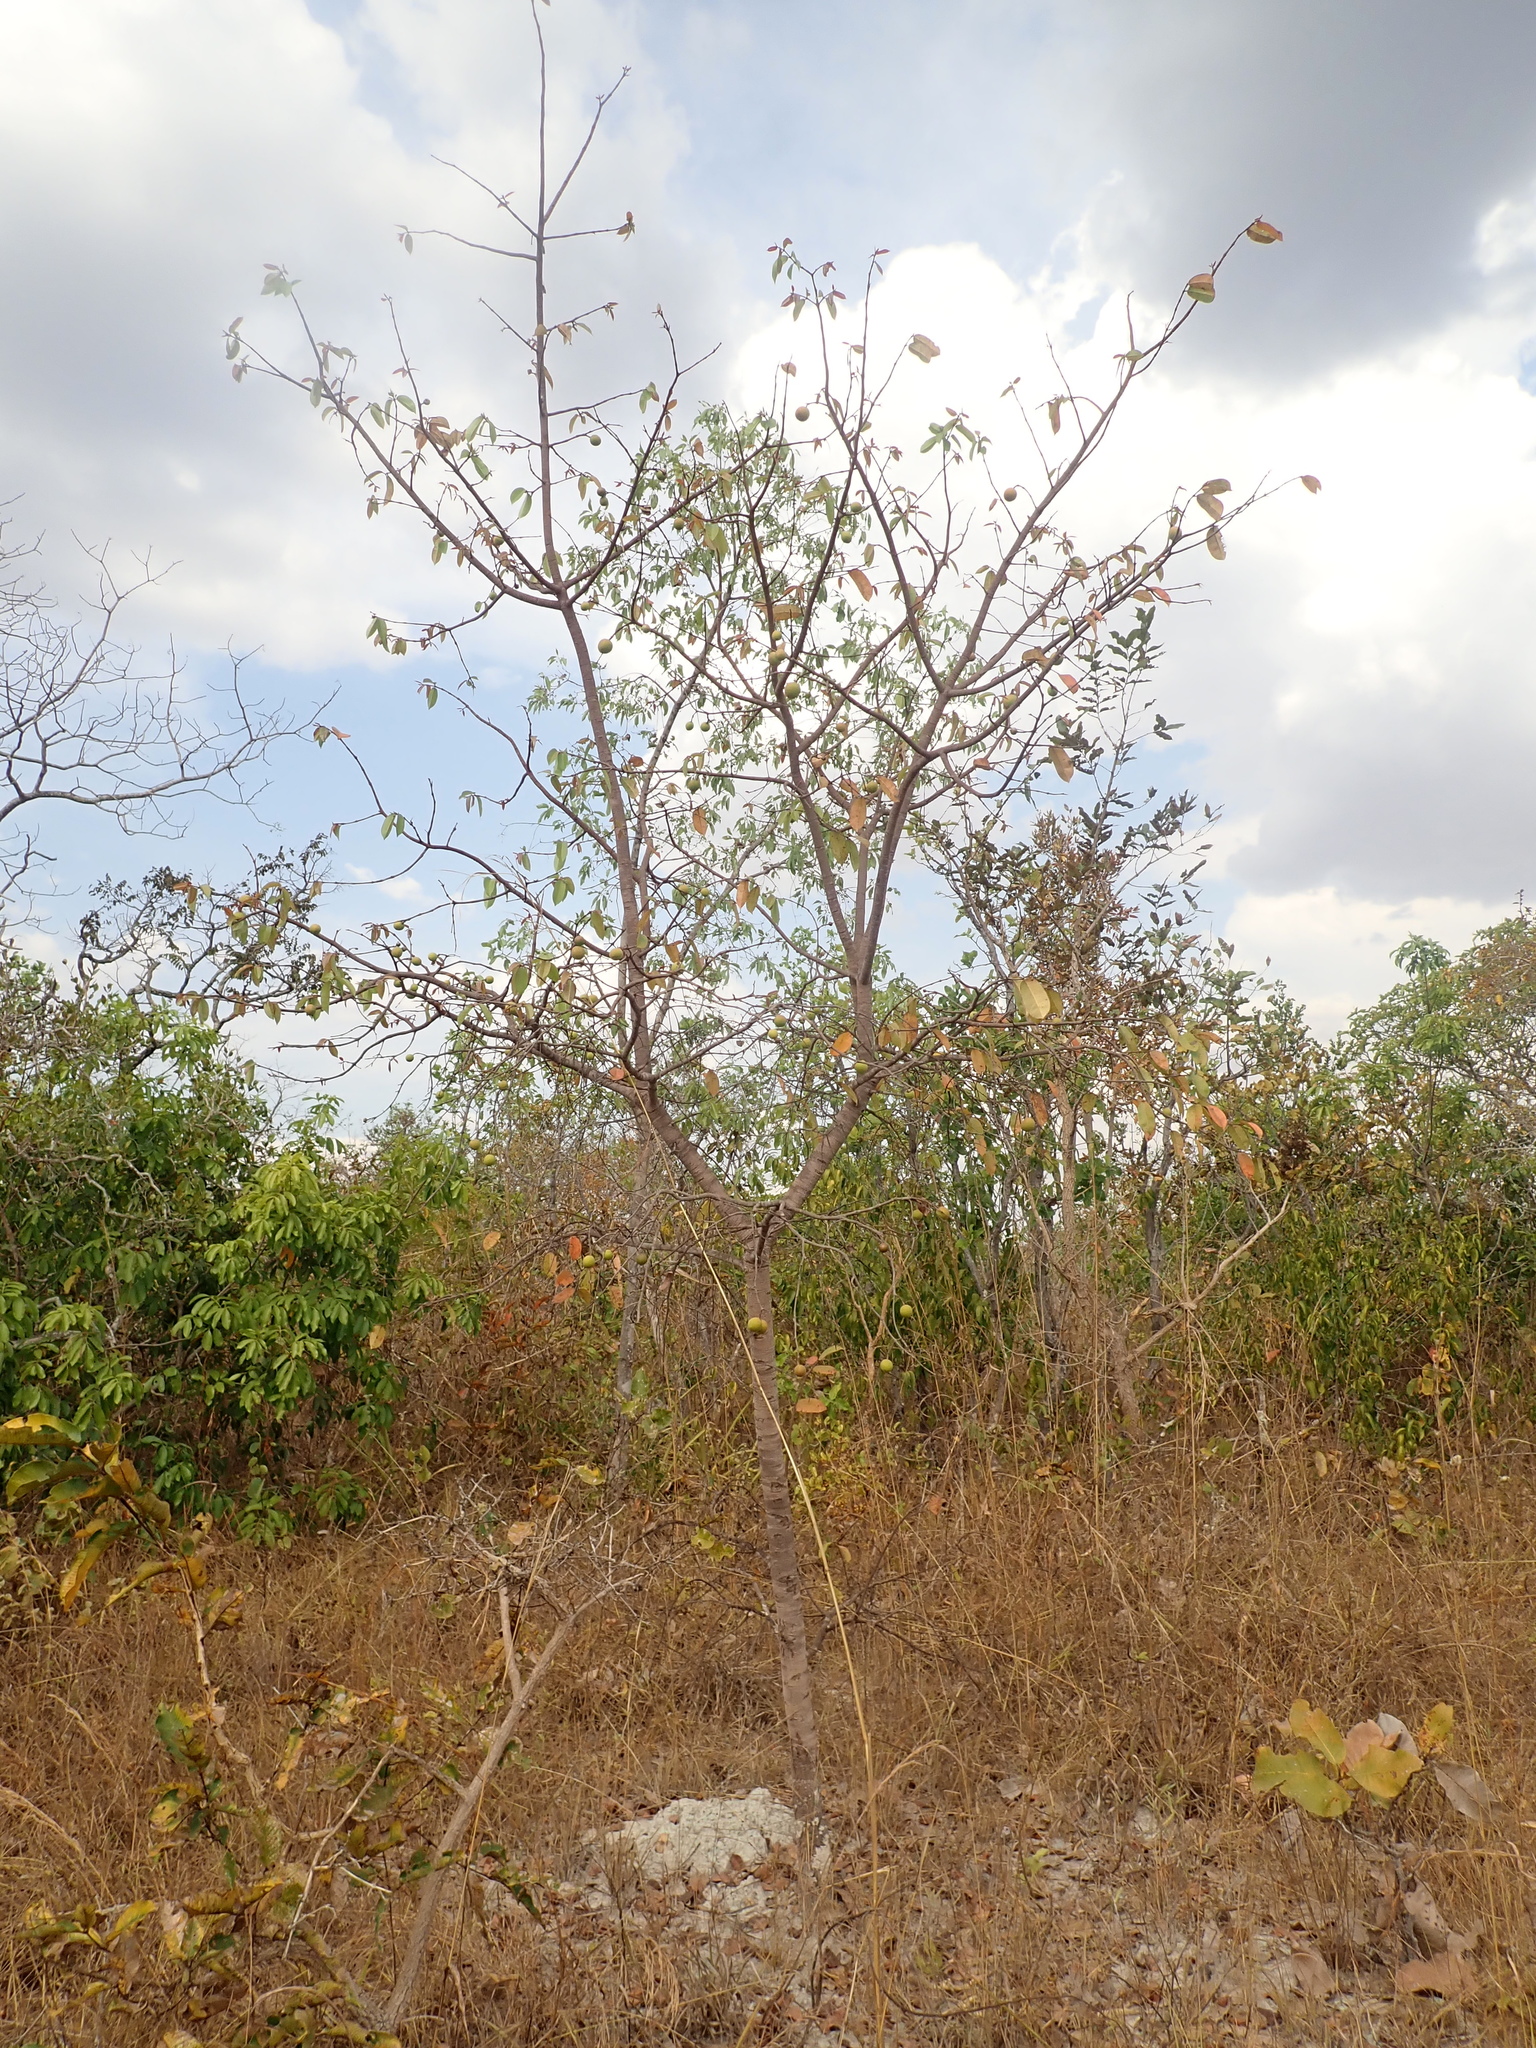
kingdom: Plantae
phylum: Tracheophyta
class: Magnoliopsida
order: Gentianales
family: Apocynaceae
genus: Hancornia
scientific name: Hancornia speciosa
